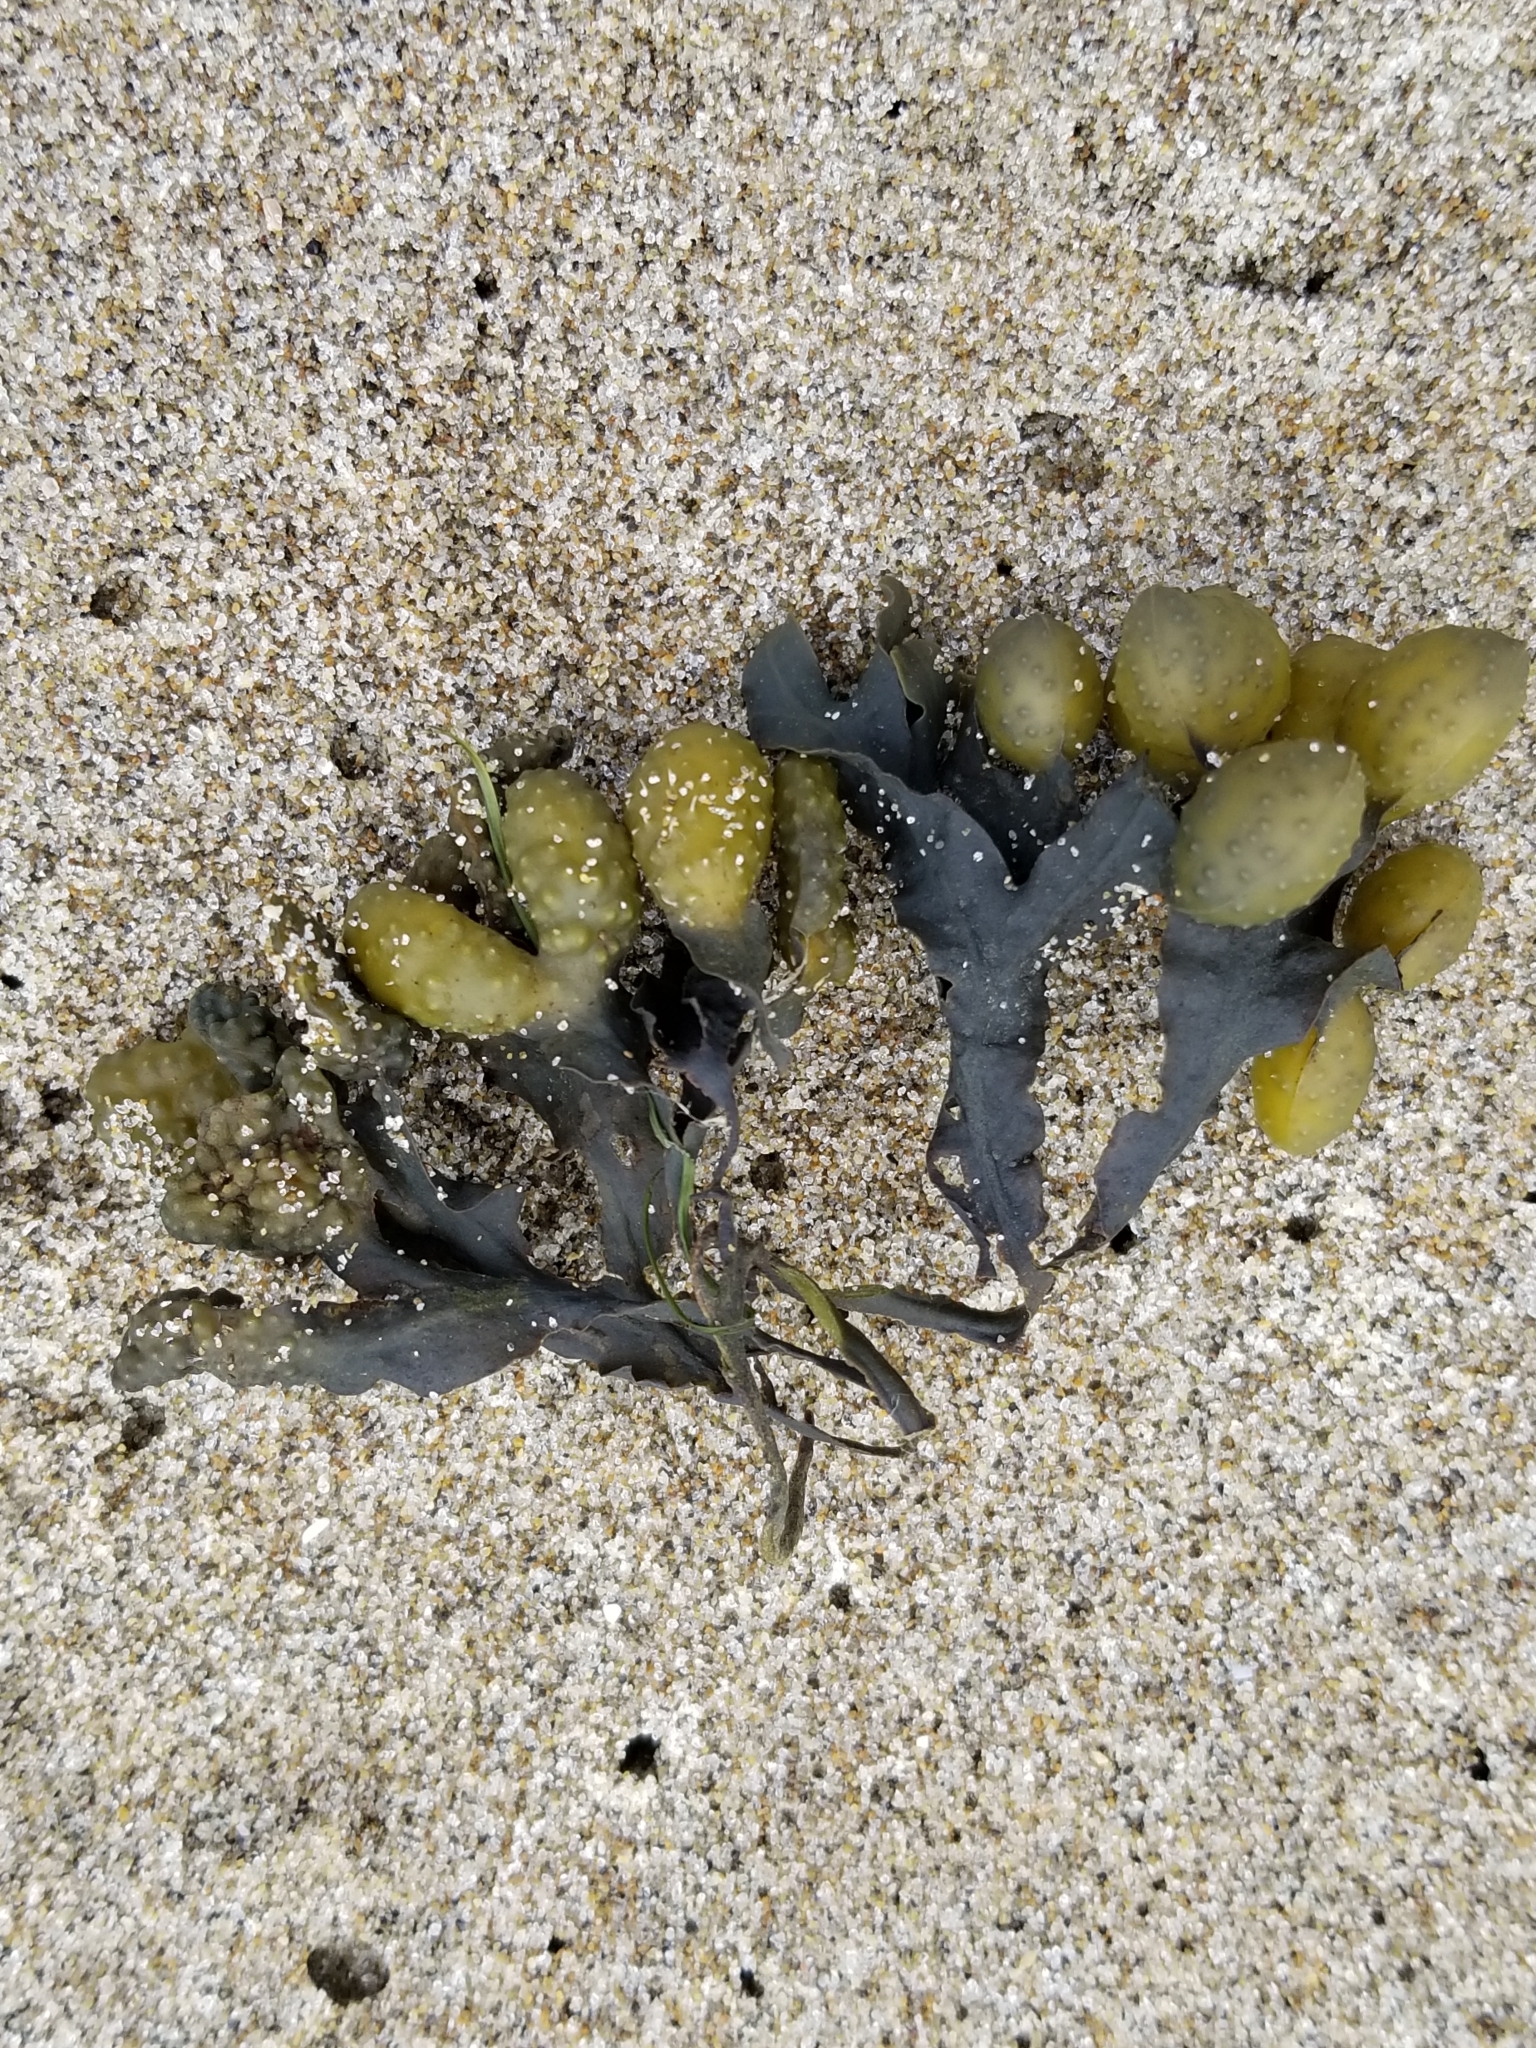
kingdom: Chromista
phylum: Ochrophyta
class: Phaeophyceae
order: Fucales
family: Fucaceae
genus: Fucus
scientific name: Fucus distichus
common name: Rockweed
